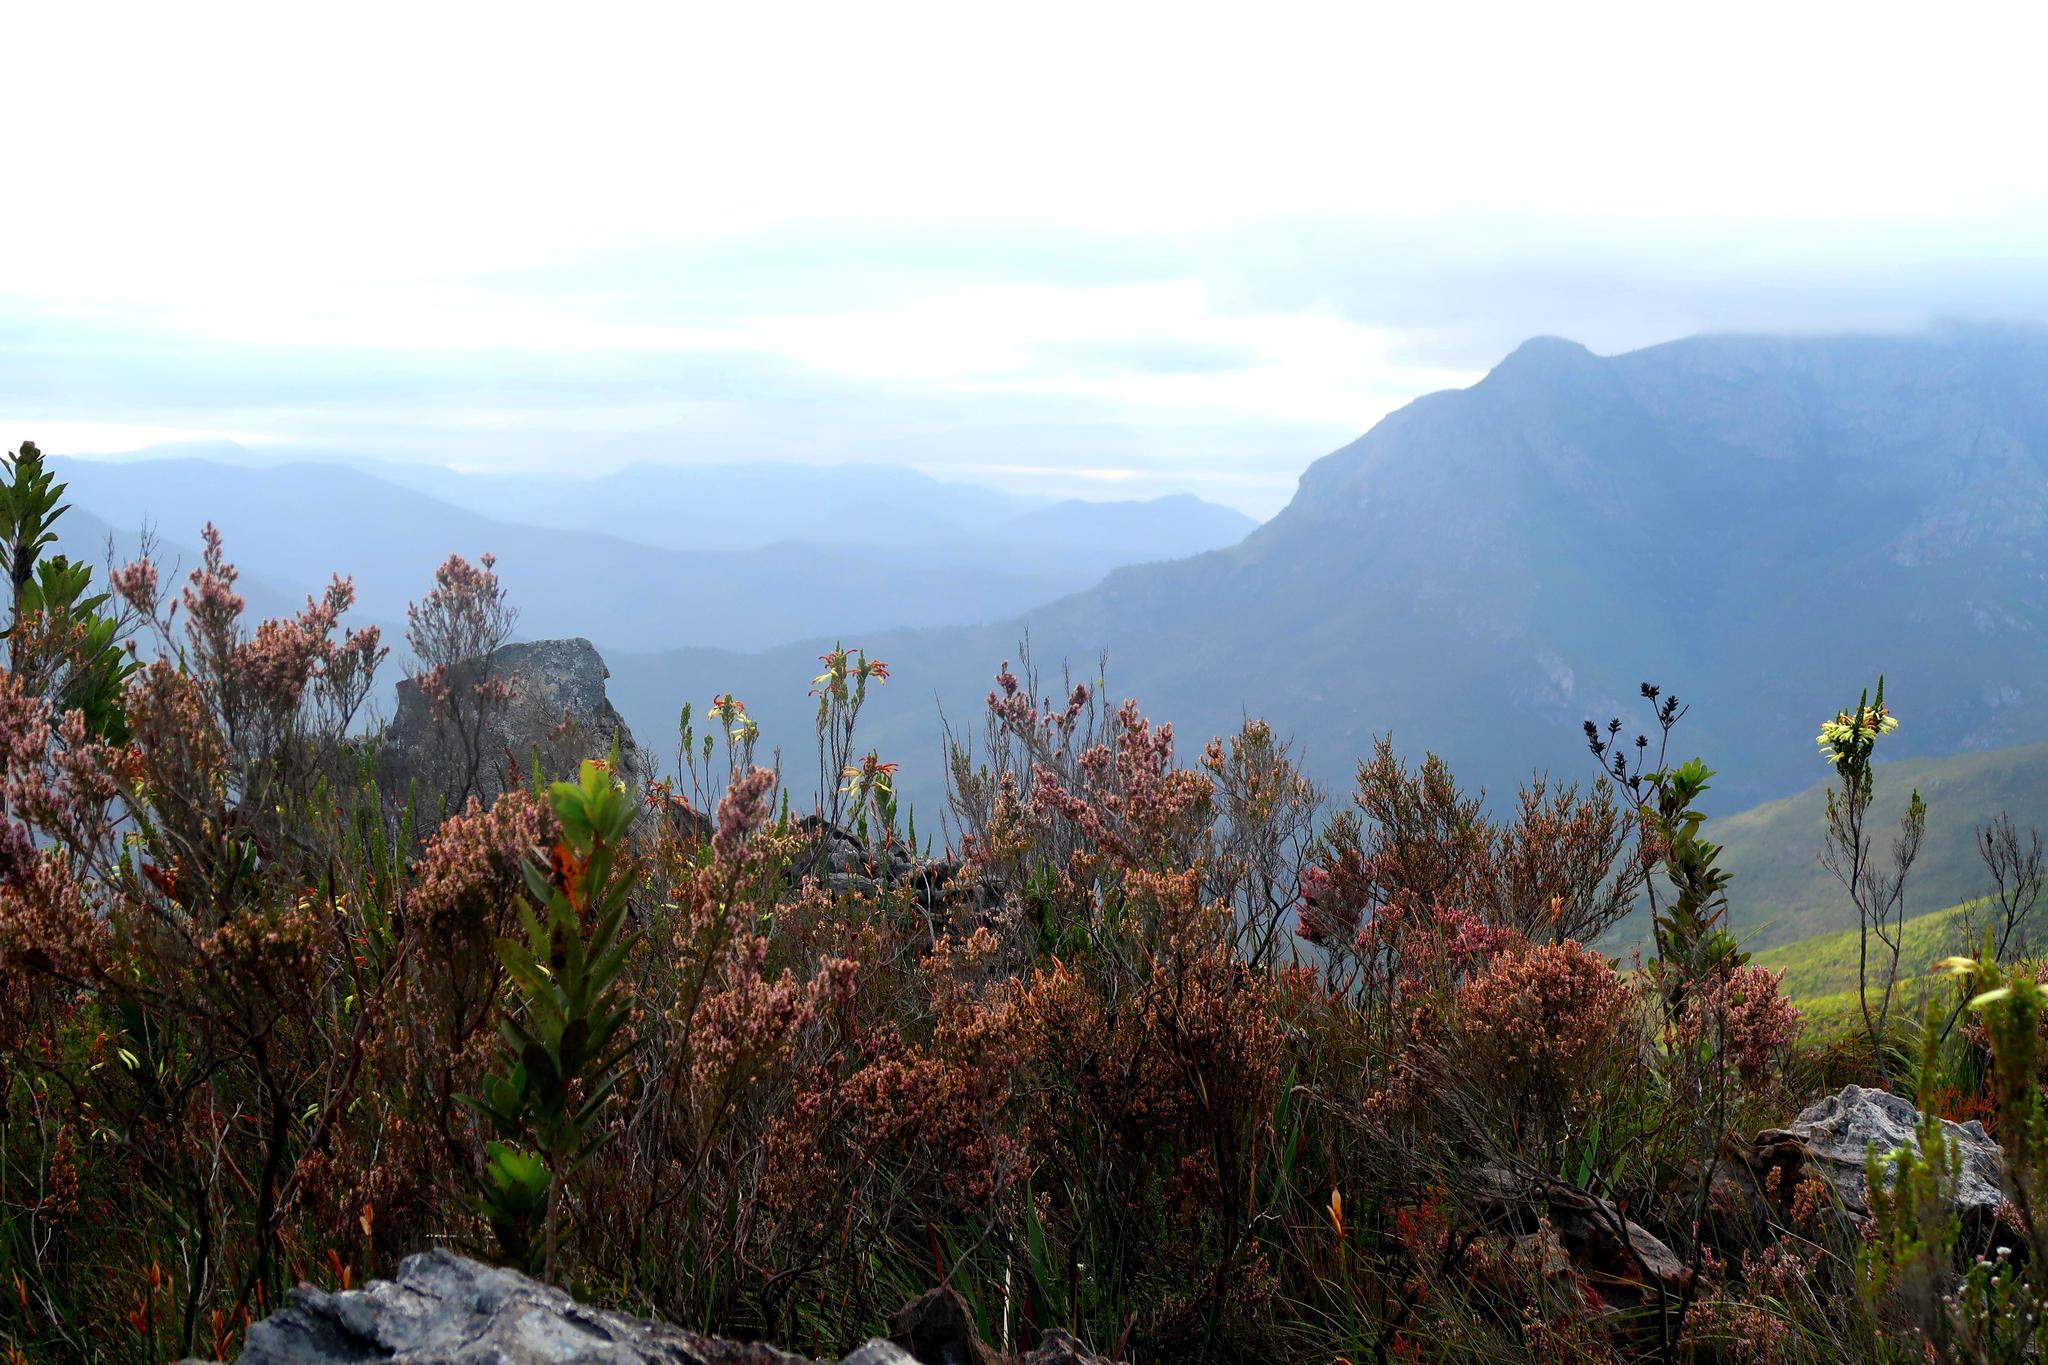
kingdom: Plantae
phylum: Tracheophyta
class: Magnoliopsida
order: Ericales
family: Ericaceae
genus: Erica
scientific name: Erica uberiflora
